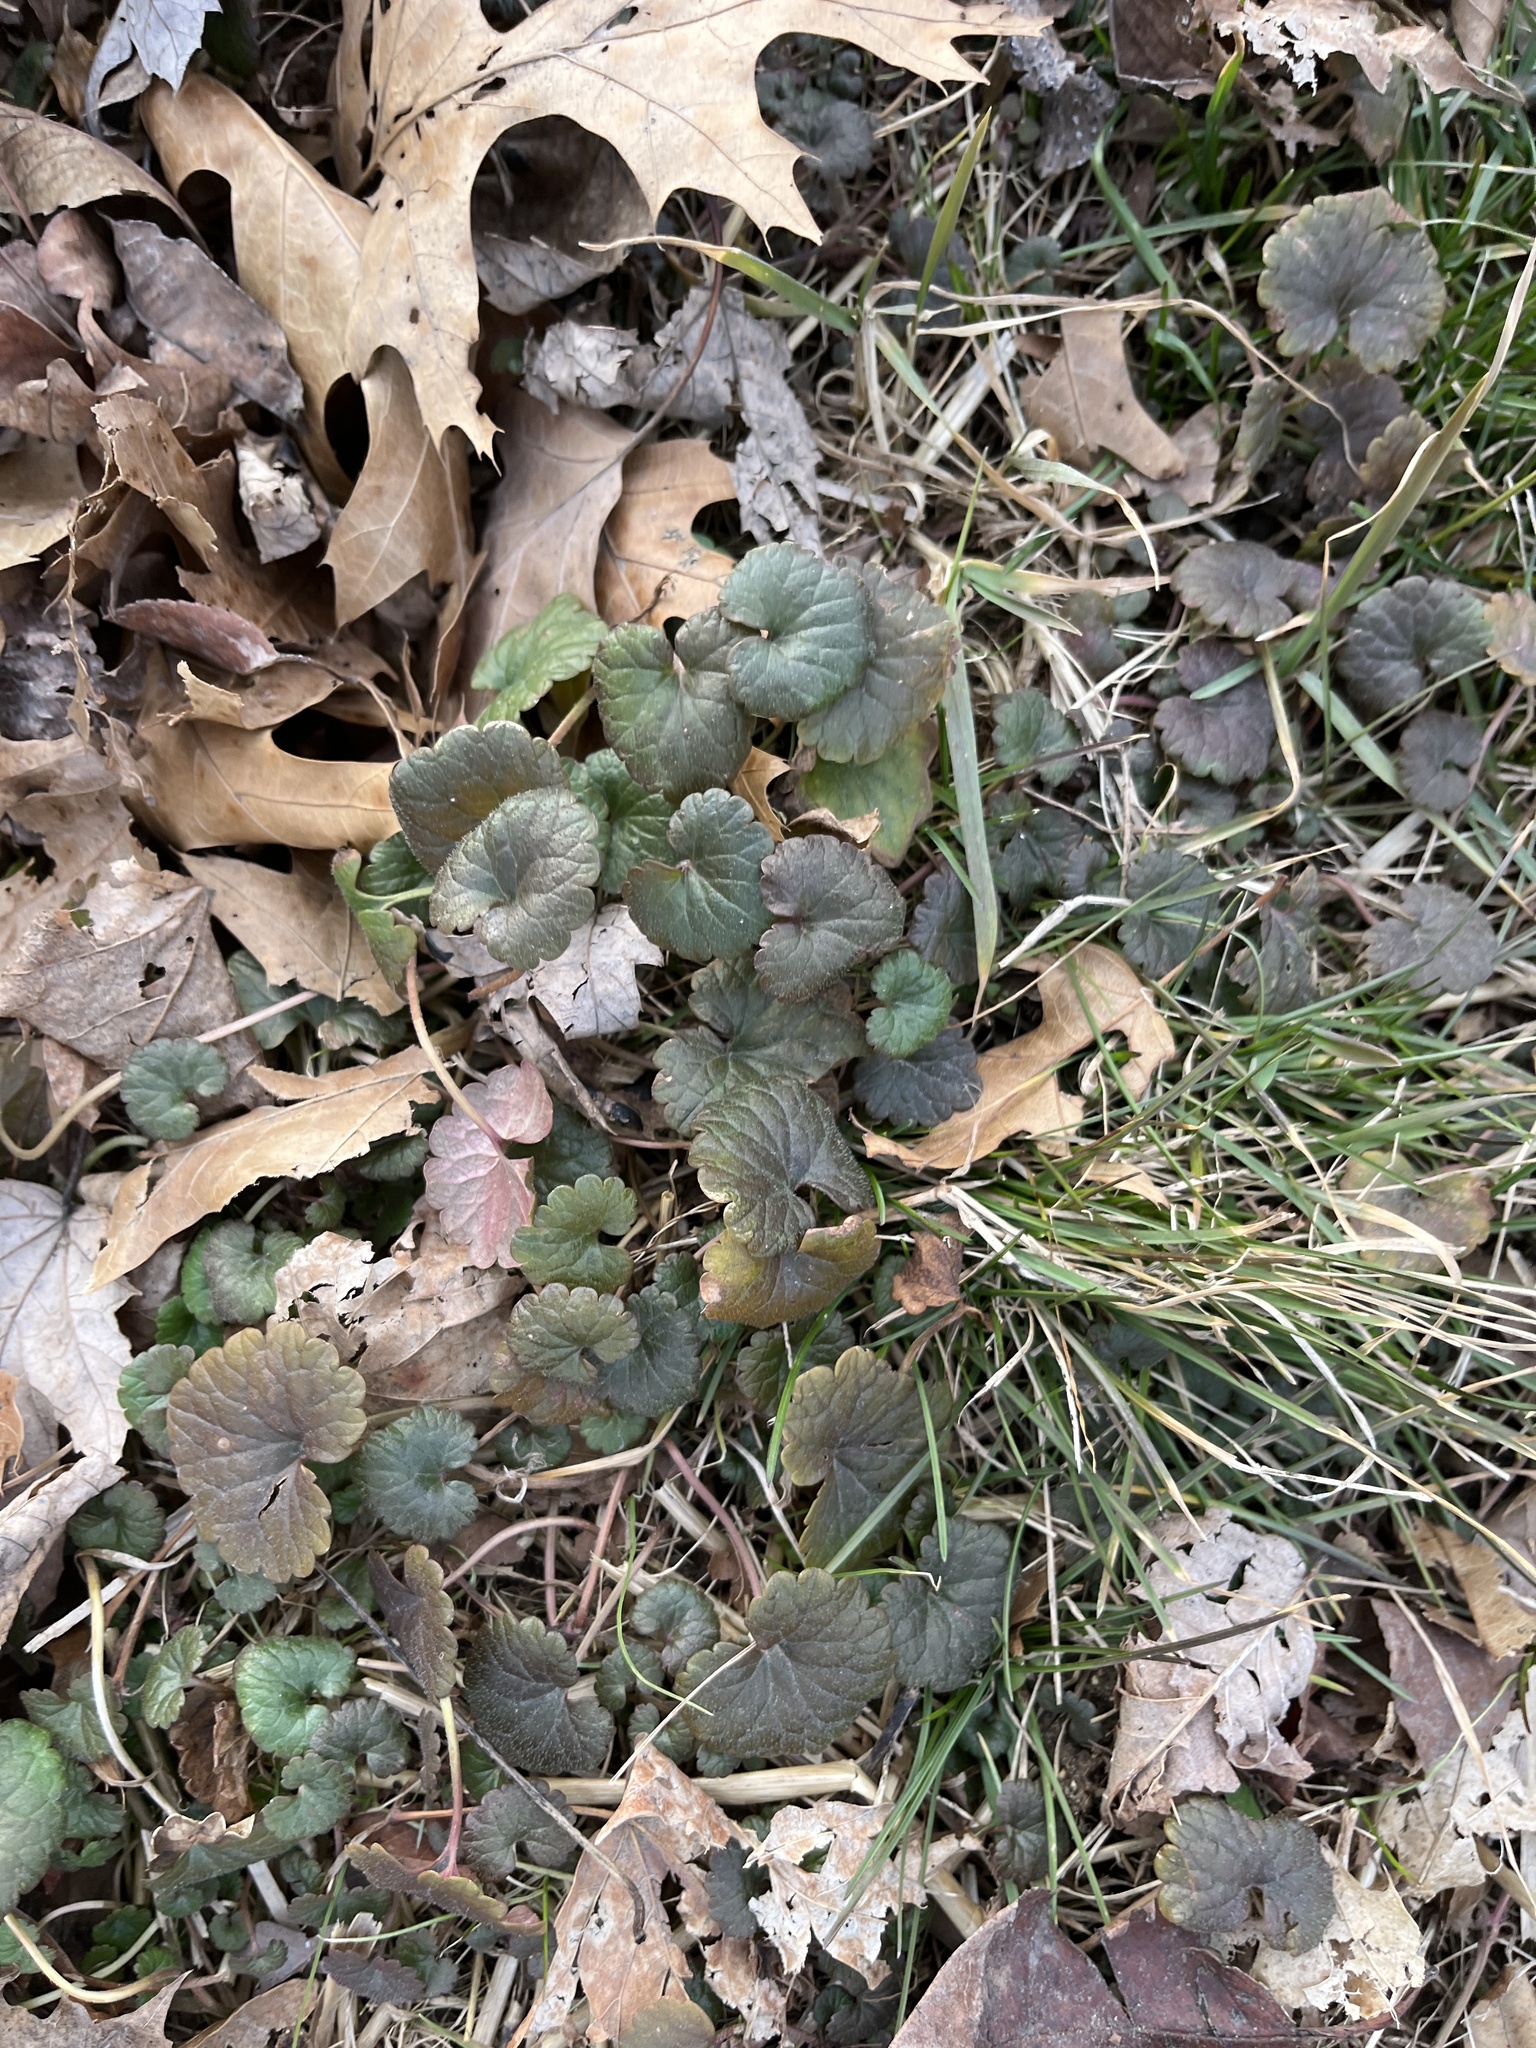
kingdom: Plantae
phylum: Tracheophyta
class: Magnoliopsida
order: Lamiales
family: Lamiaceae
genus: Glechoma
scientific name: Glechoma hederacea
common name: Ground ivy
